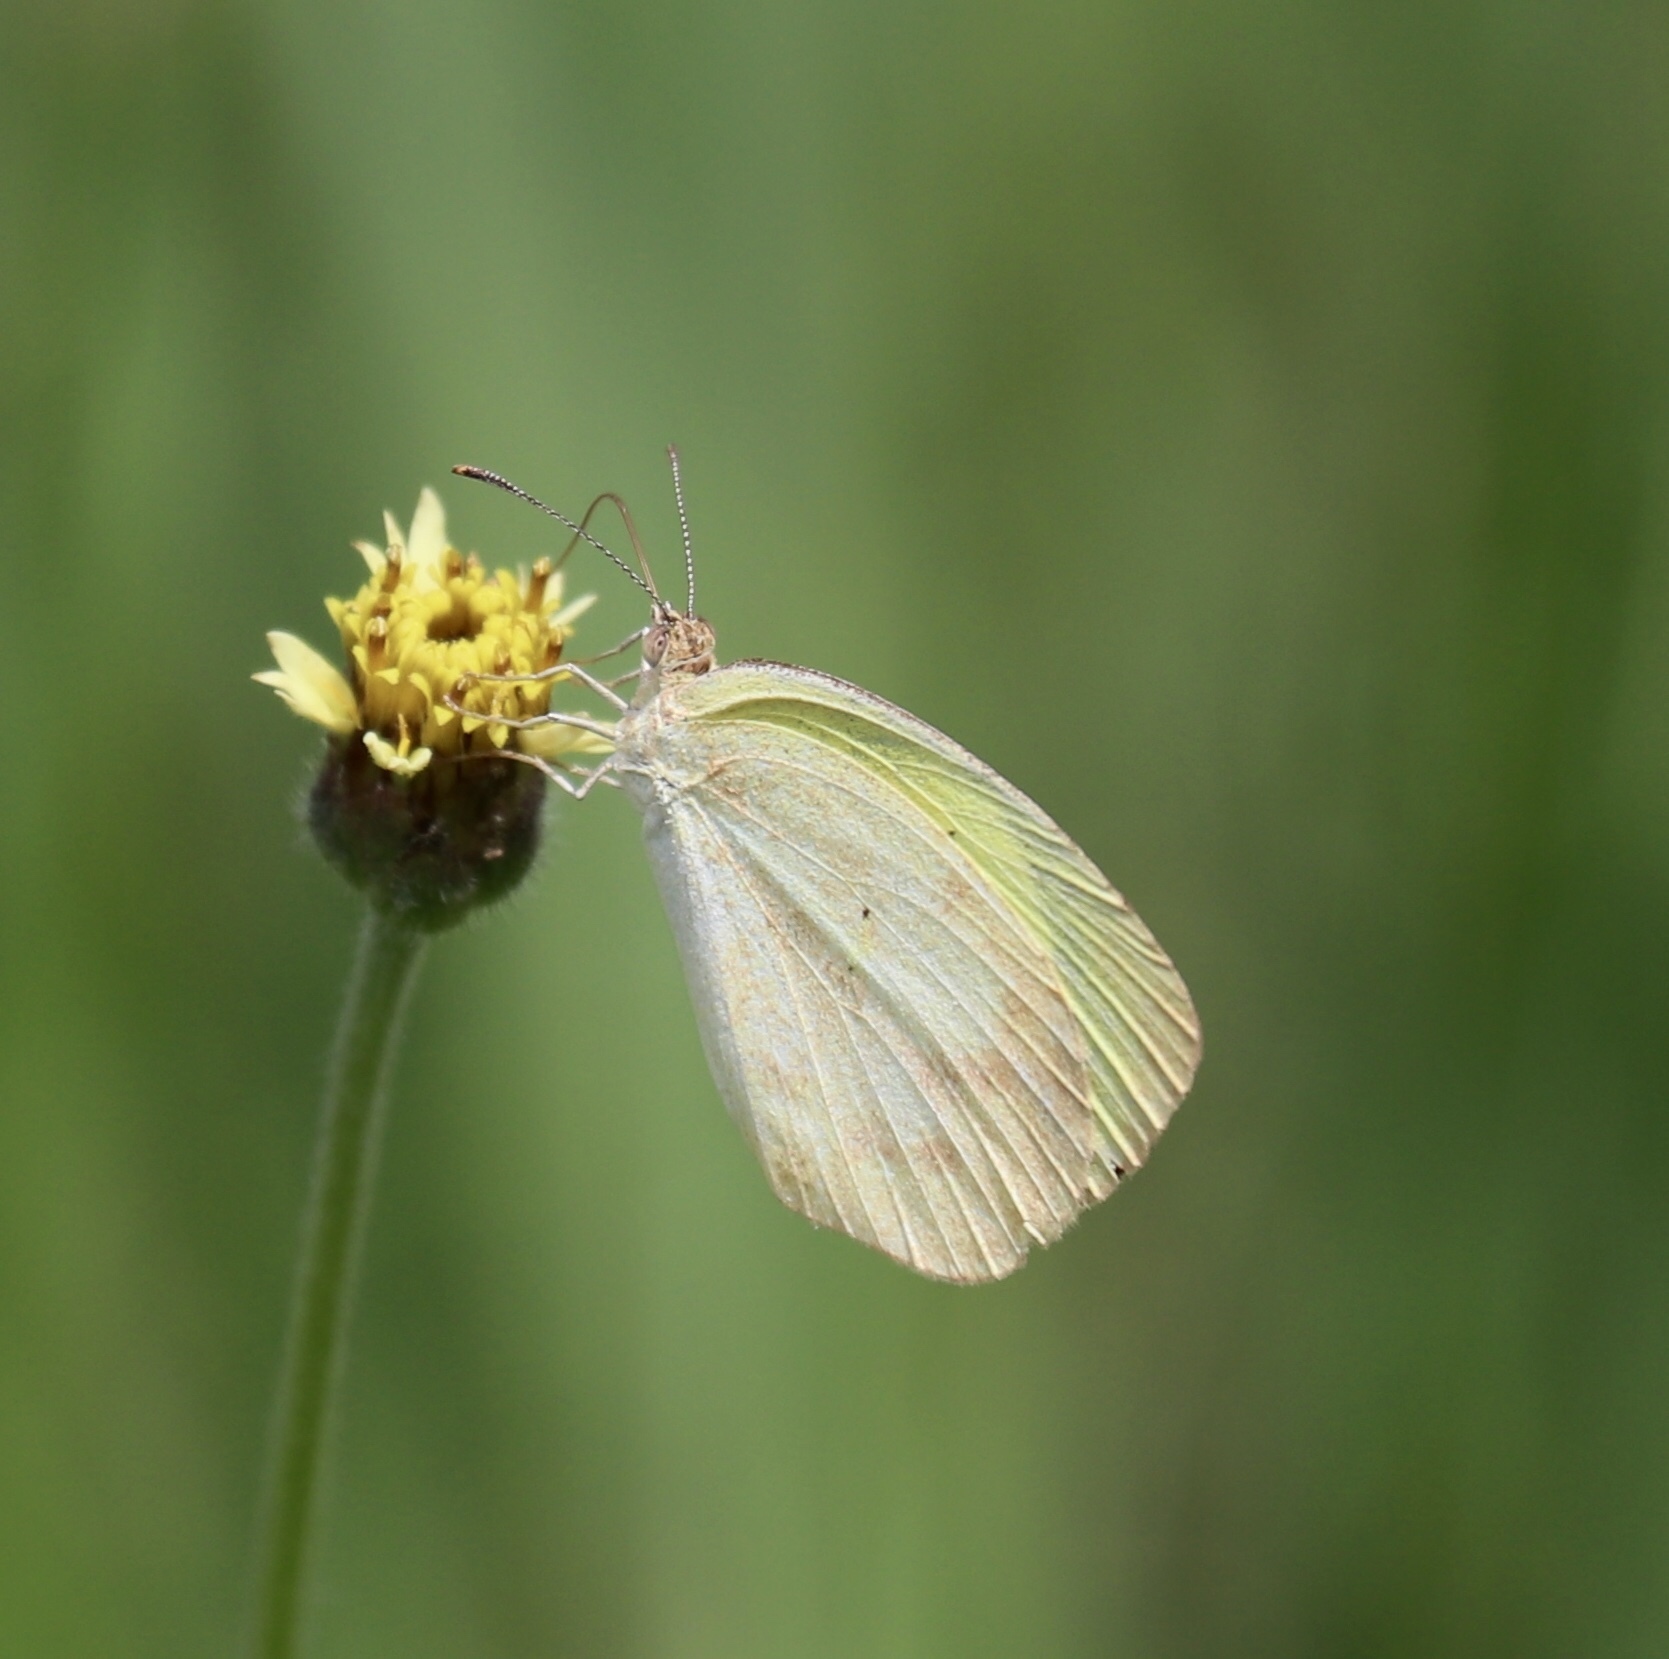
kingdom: Animalia
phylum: Arthropoda
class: Insecta
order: Lepidoptera
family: Pieridae
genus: Eurema
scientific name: Eurema daira
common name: Barred sulphur
